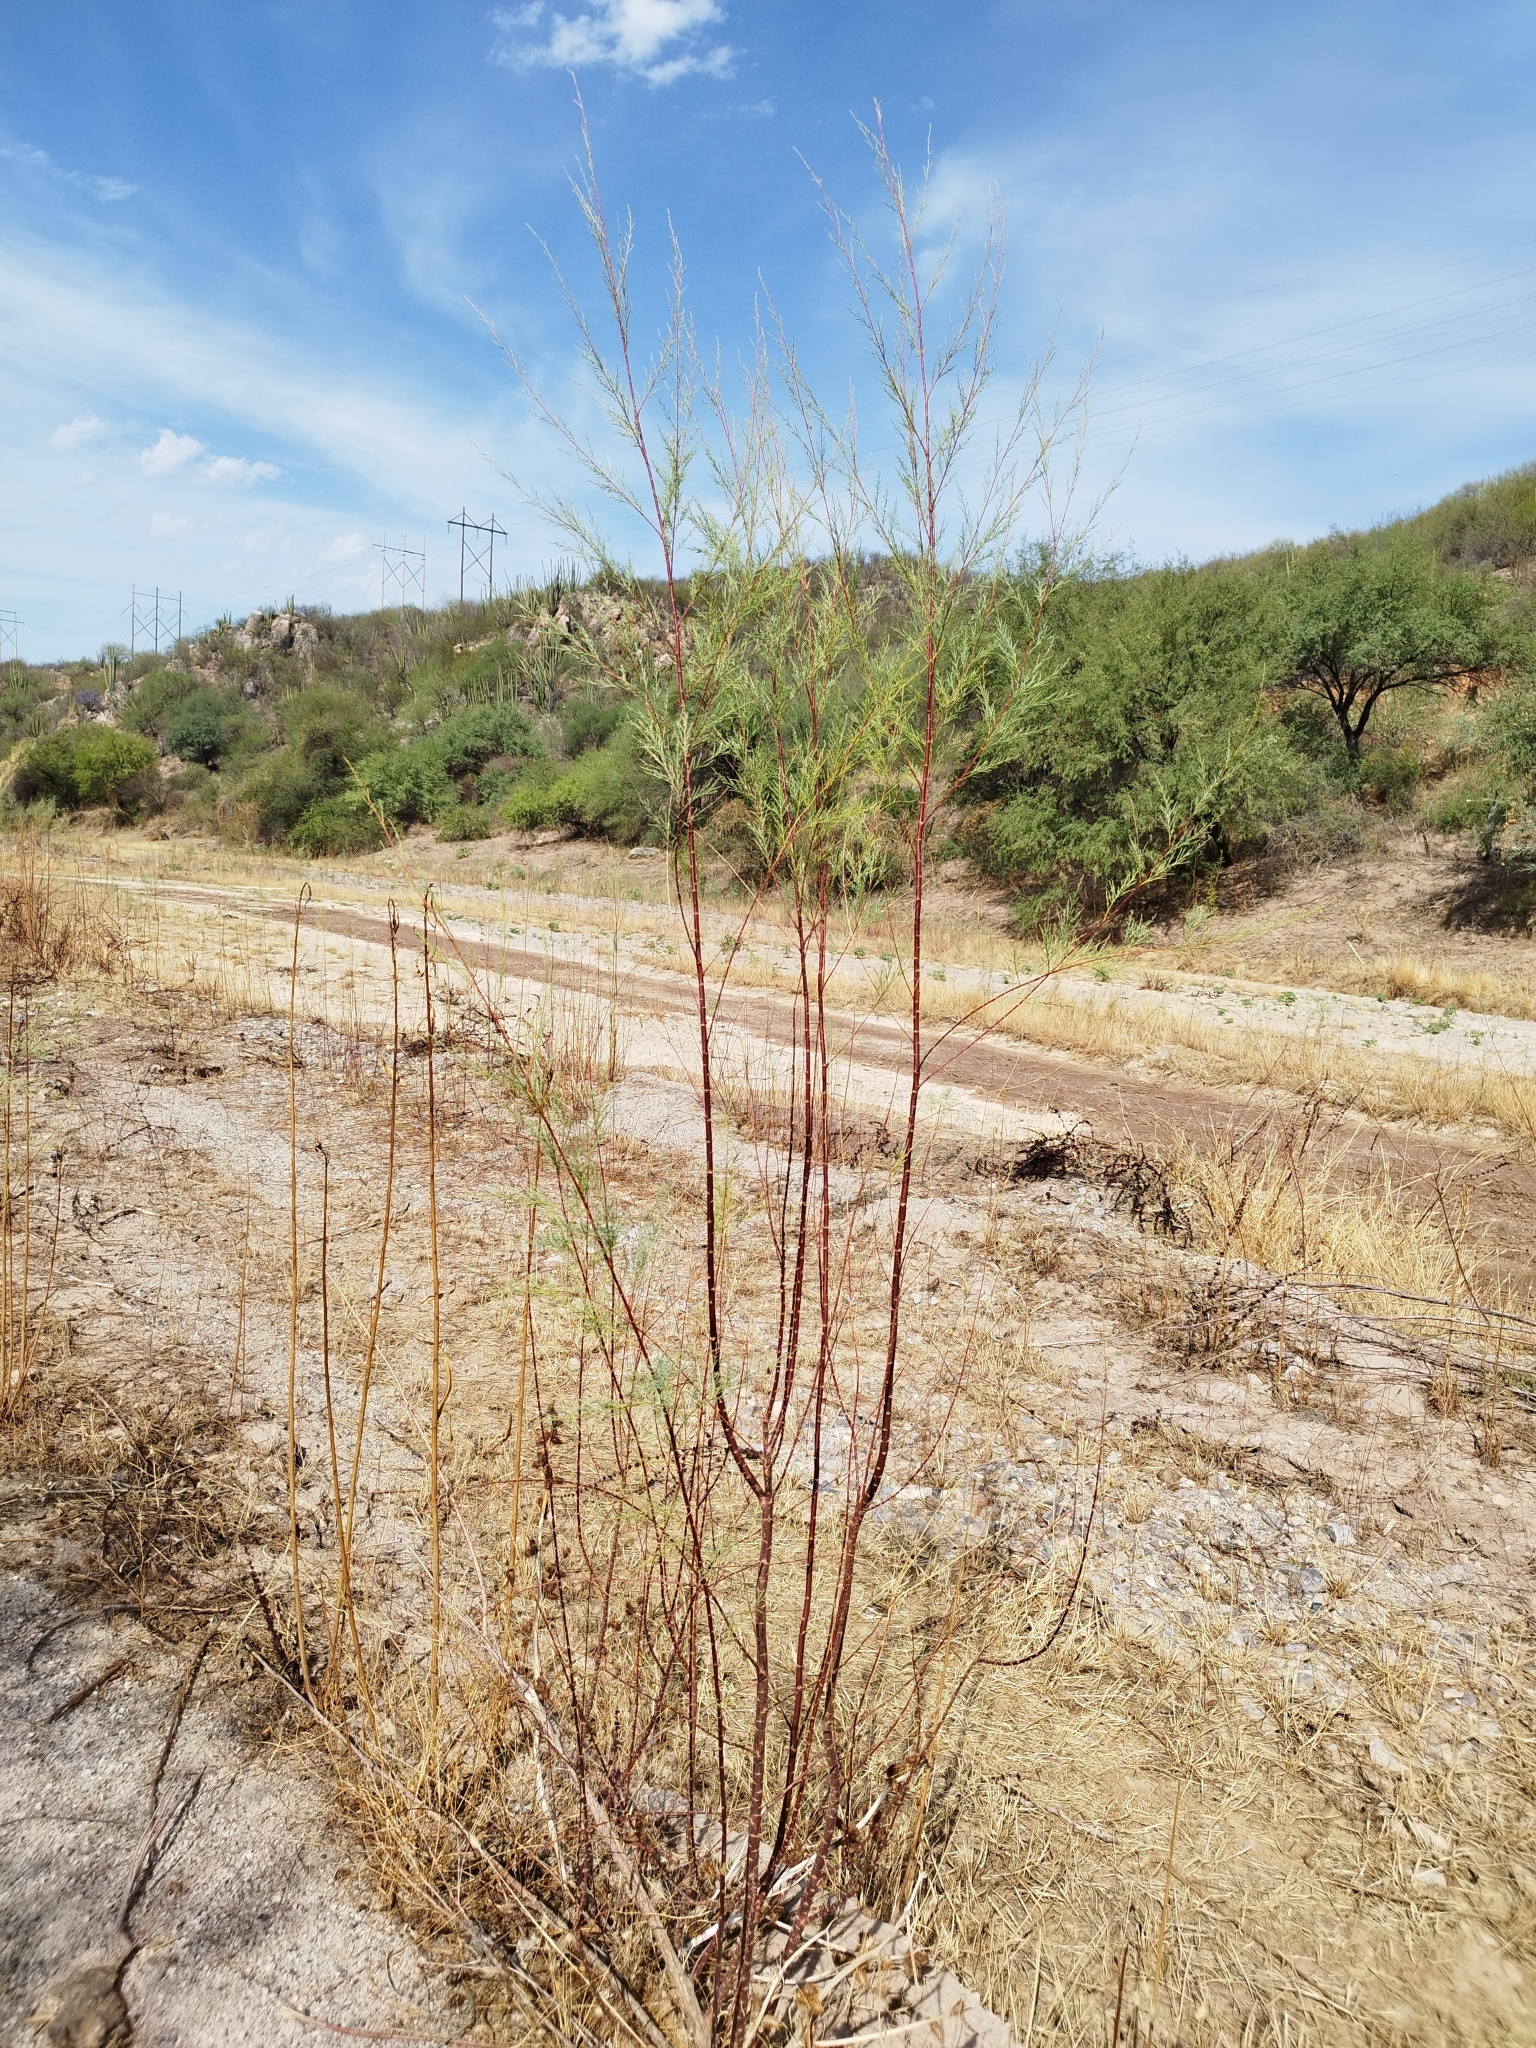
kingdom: Plantae
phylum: Tracheophyta
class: Magnoliopsida
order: Caryophyllales
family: Tamaricaceae
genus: Tamarix
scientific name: Tamarix
